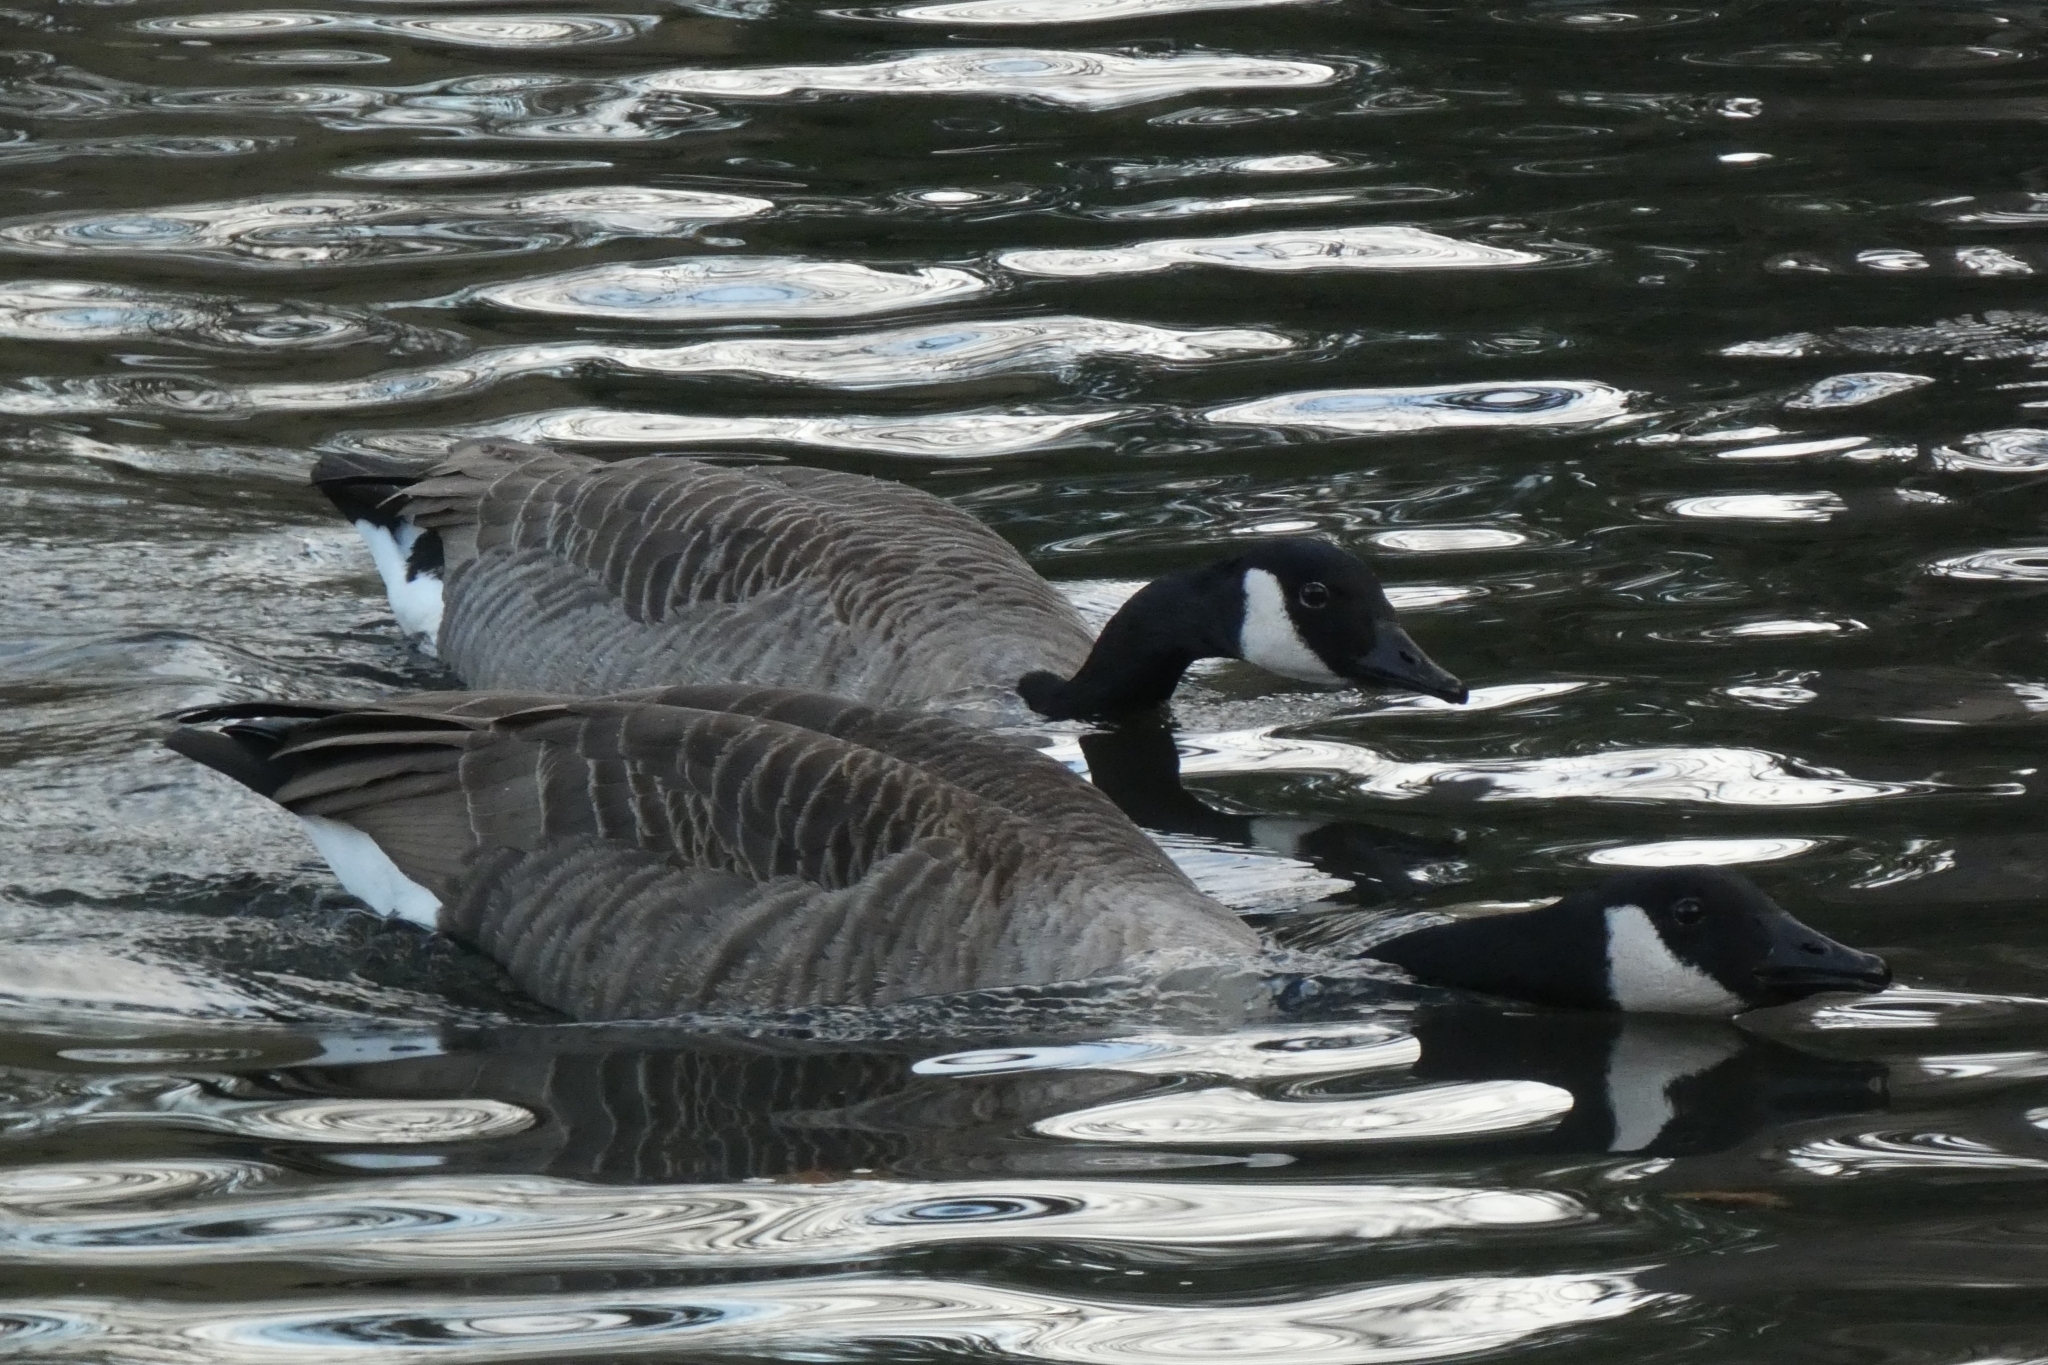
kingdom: Animalia
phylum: Chordata
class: Aves
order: Anseriformes
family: Anatidae
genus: Branta
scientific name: Branta canadensis
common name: Canada goose
